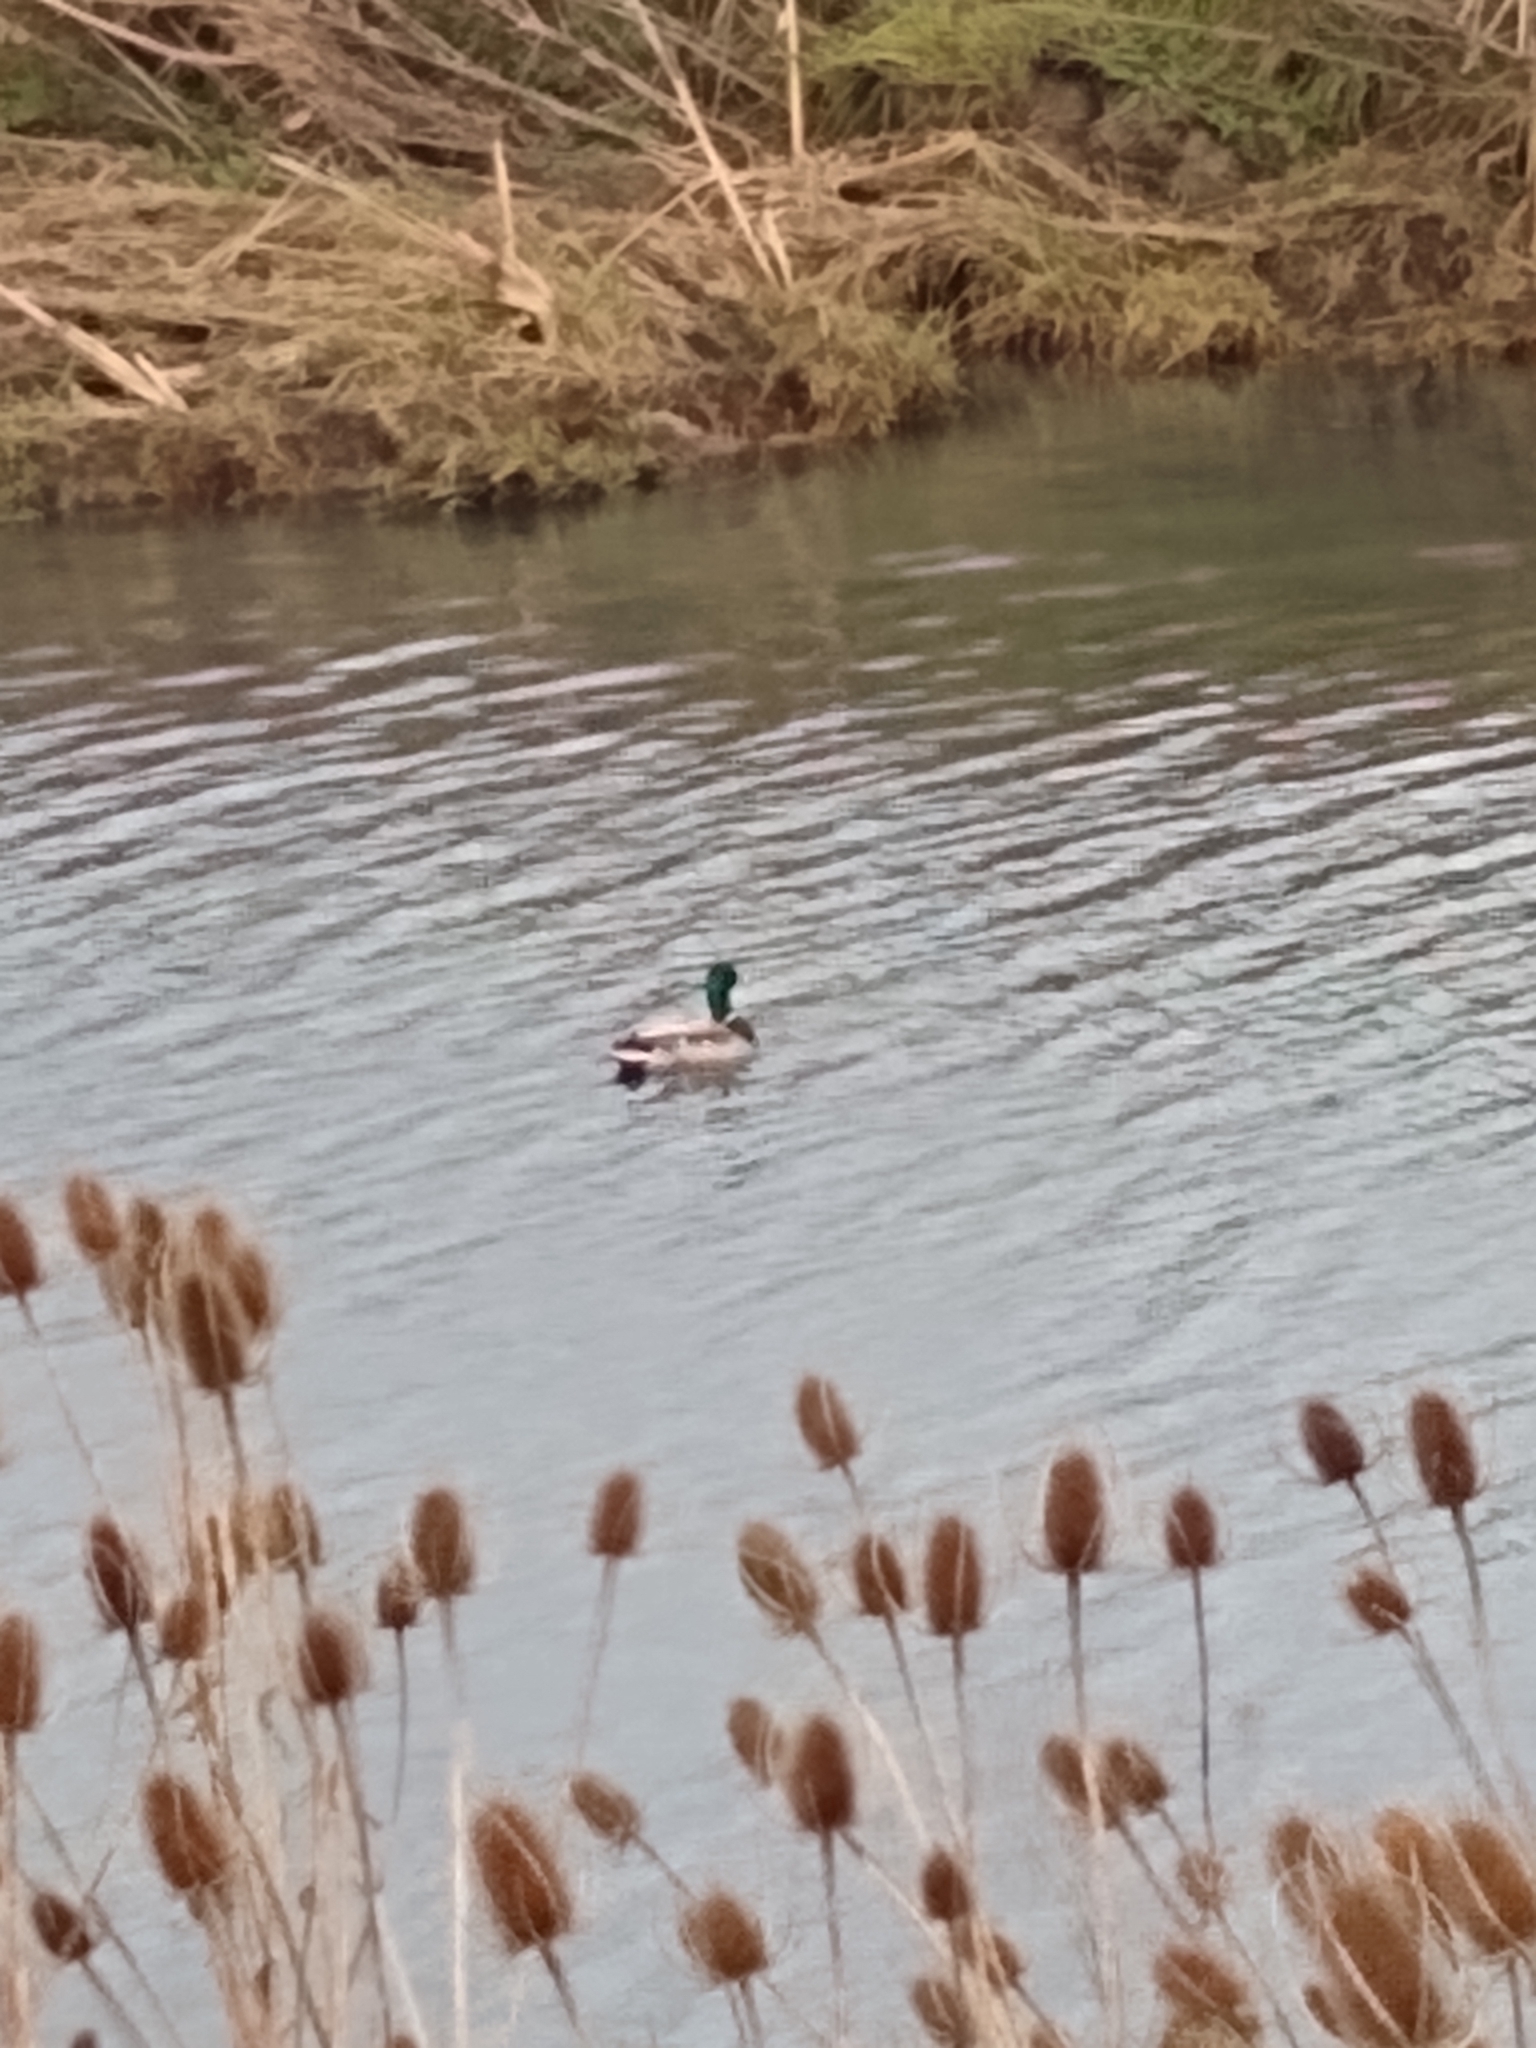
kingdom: Animalia
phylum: Chordata
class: Aves
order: Anseriformes
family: Anatidae
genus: Anas
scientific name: Anas platyrhynchos
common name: Mallard
